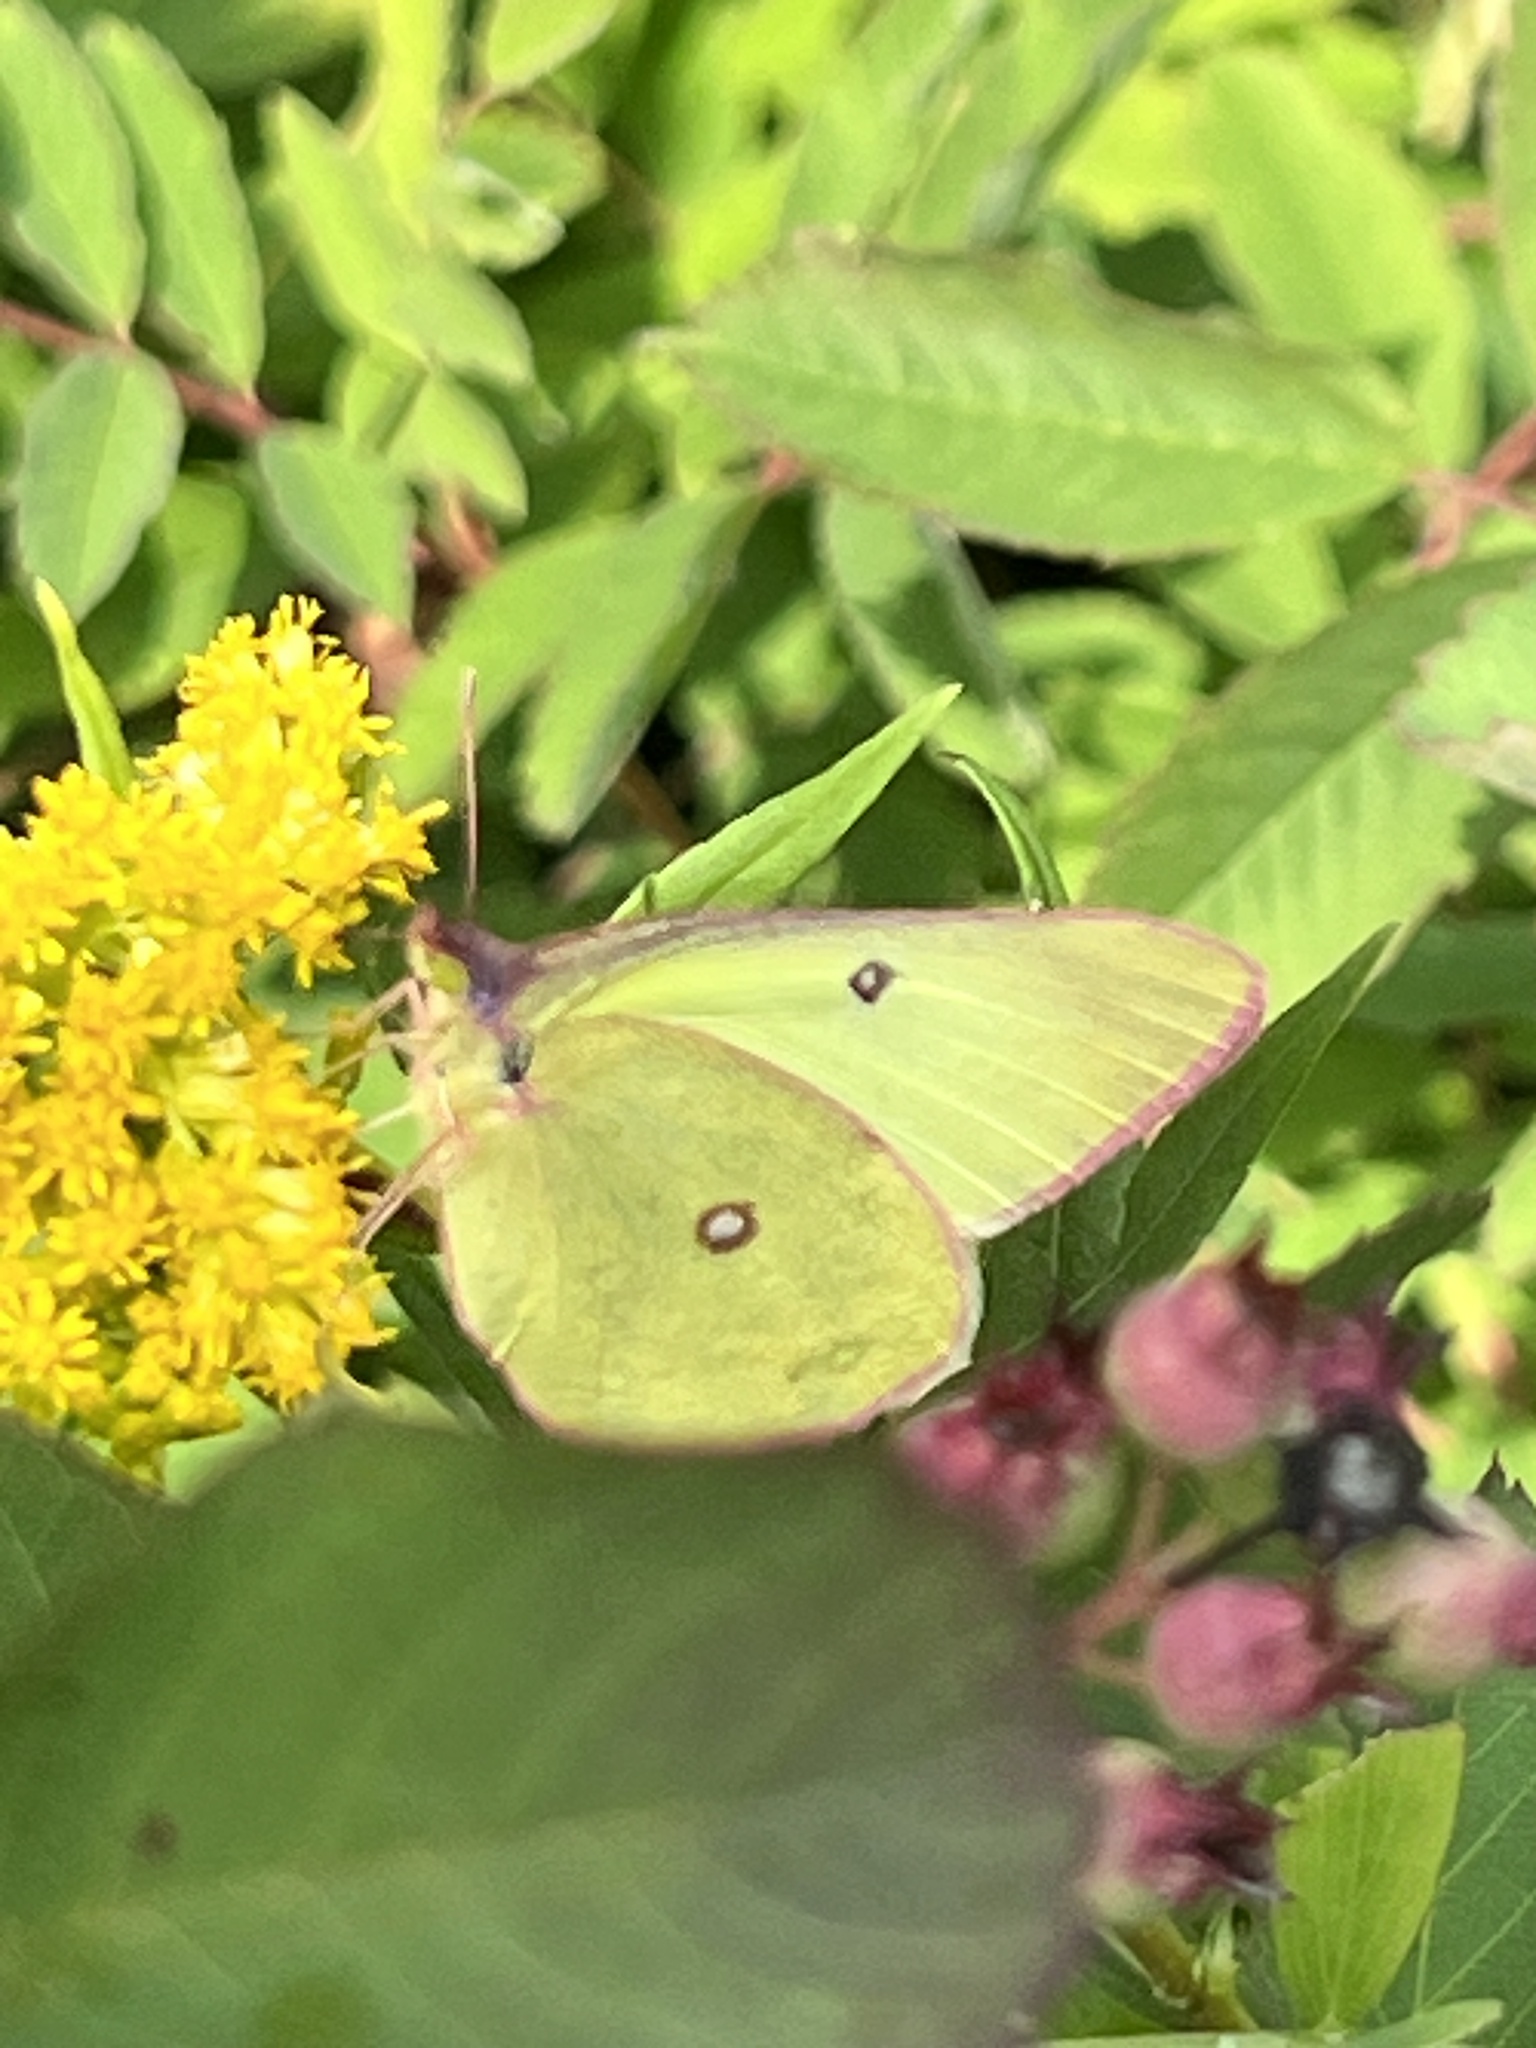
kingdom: Animalia
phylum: Arthropoda
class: Insecta
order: Lepidoptera
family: Pieridae
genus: Colias
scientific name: Colias interior
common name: Pink-edged sulphur
